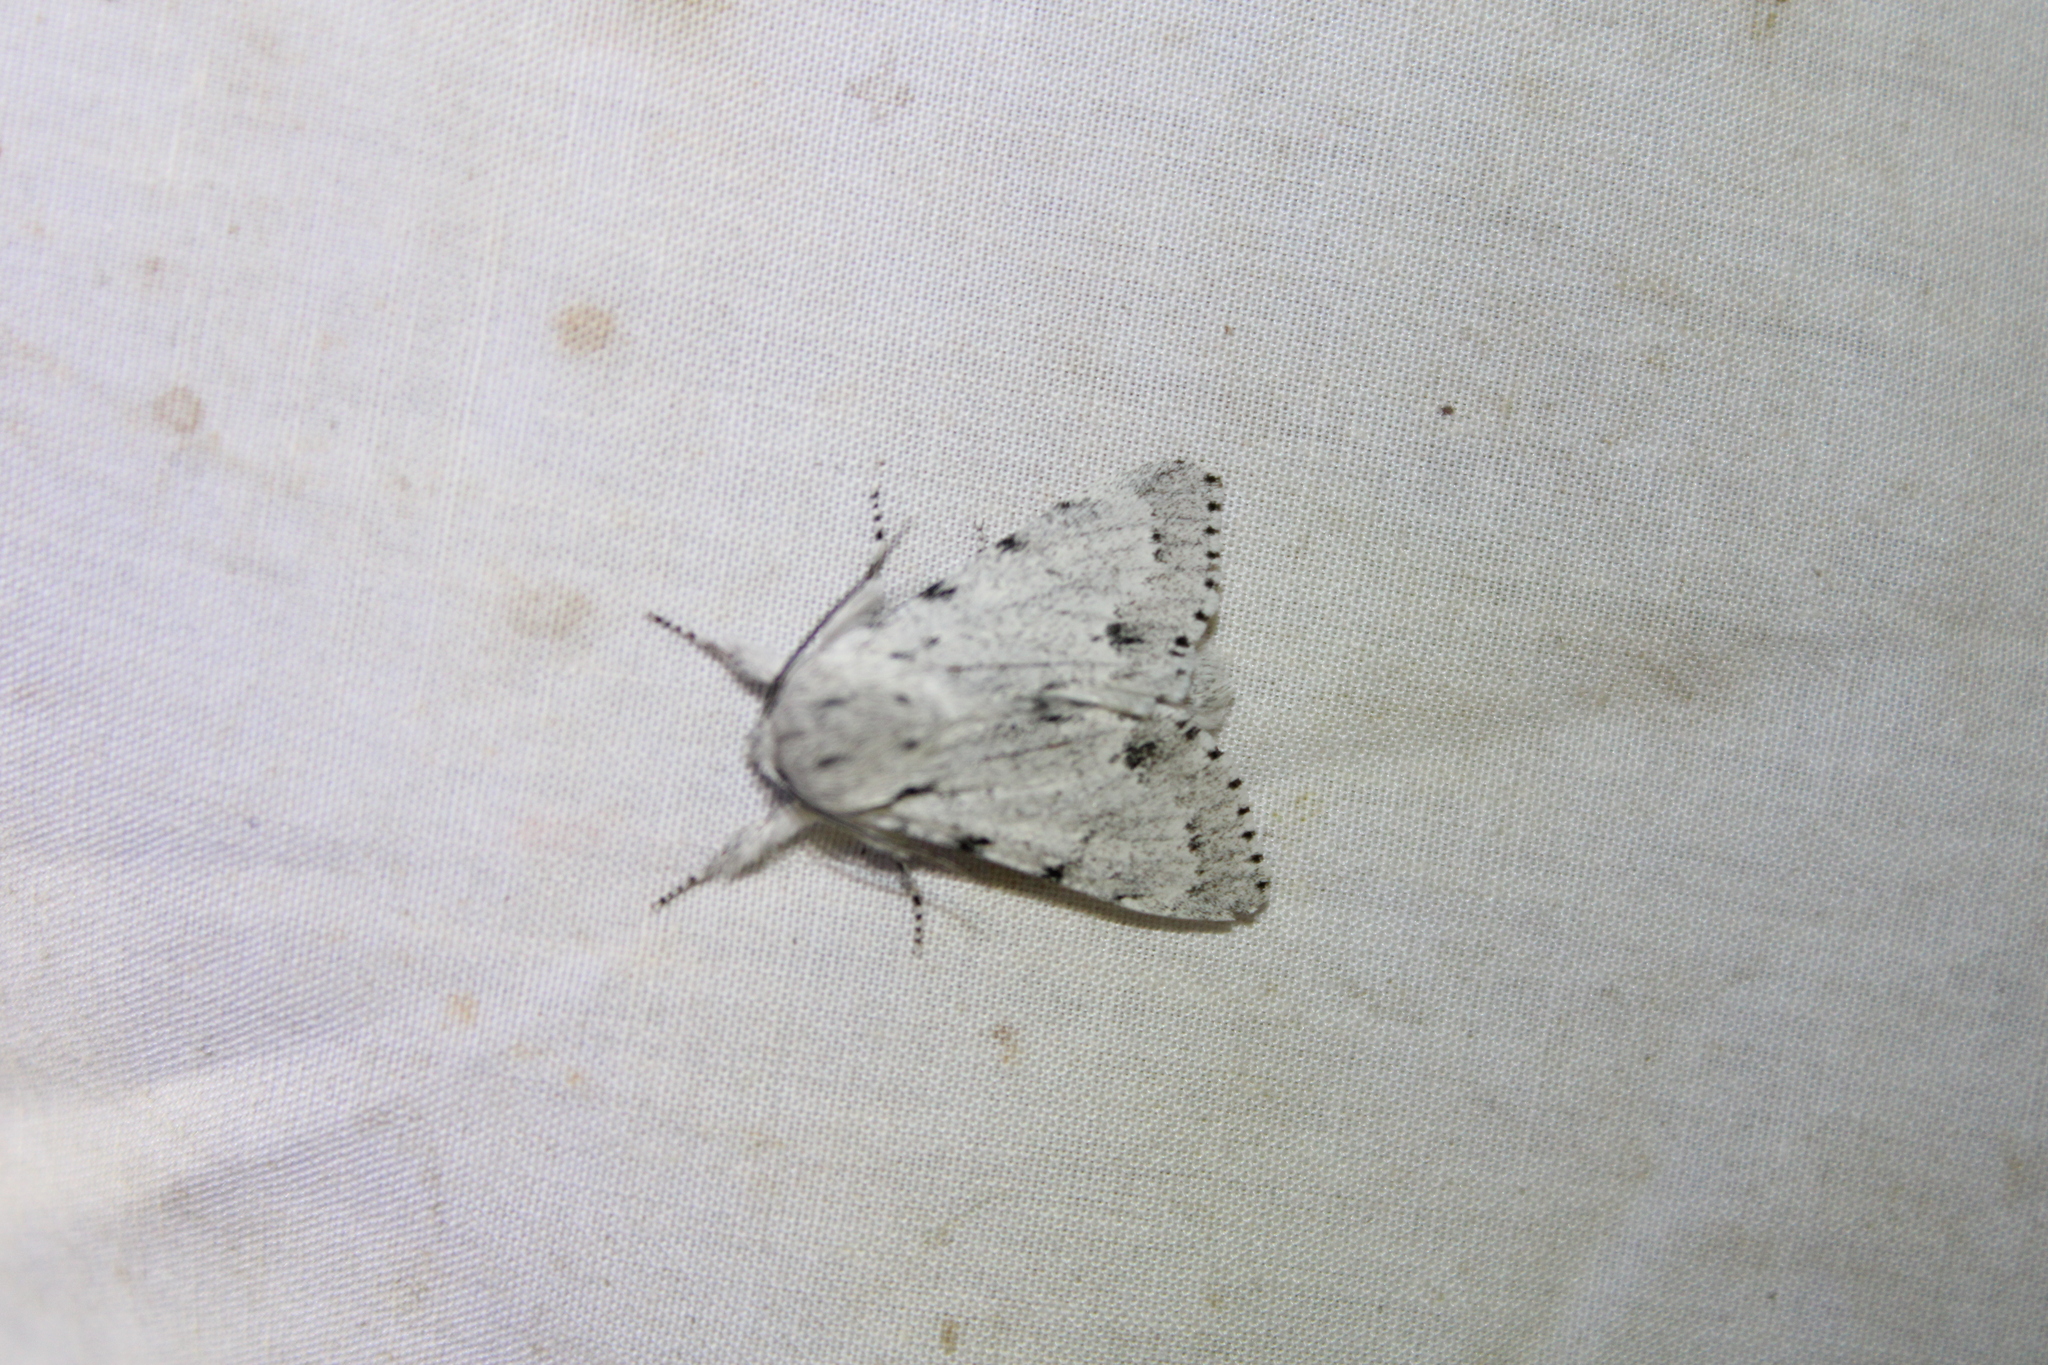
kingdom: Animalia
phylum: Arthropoda
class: Insecta
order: Lepidoptera
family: Noctuidae
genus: Acronicta
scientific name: Acronicta lepusculina
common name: Cottonwood dagger
